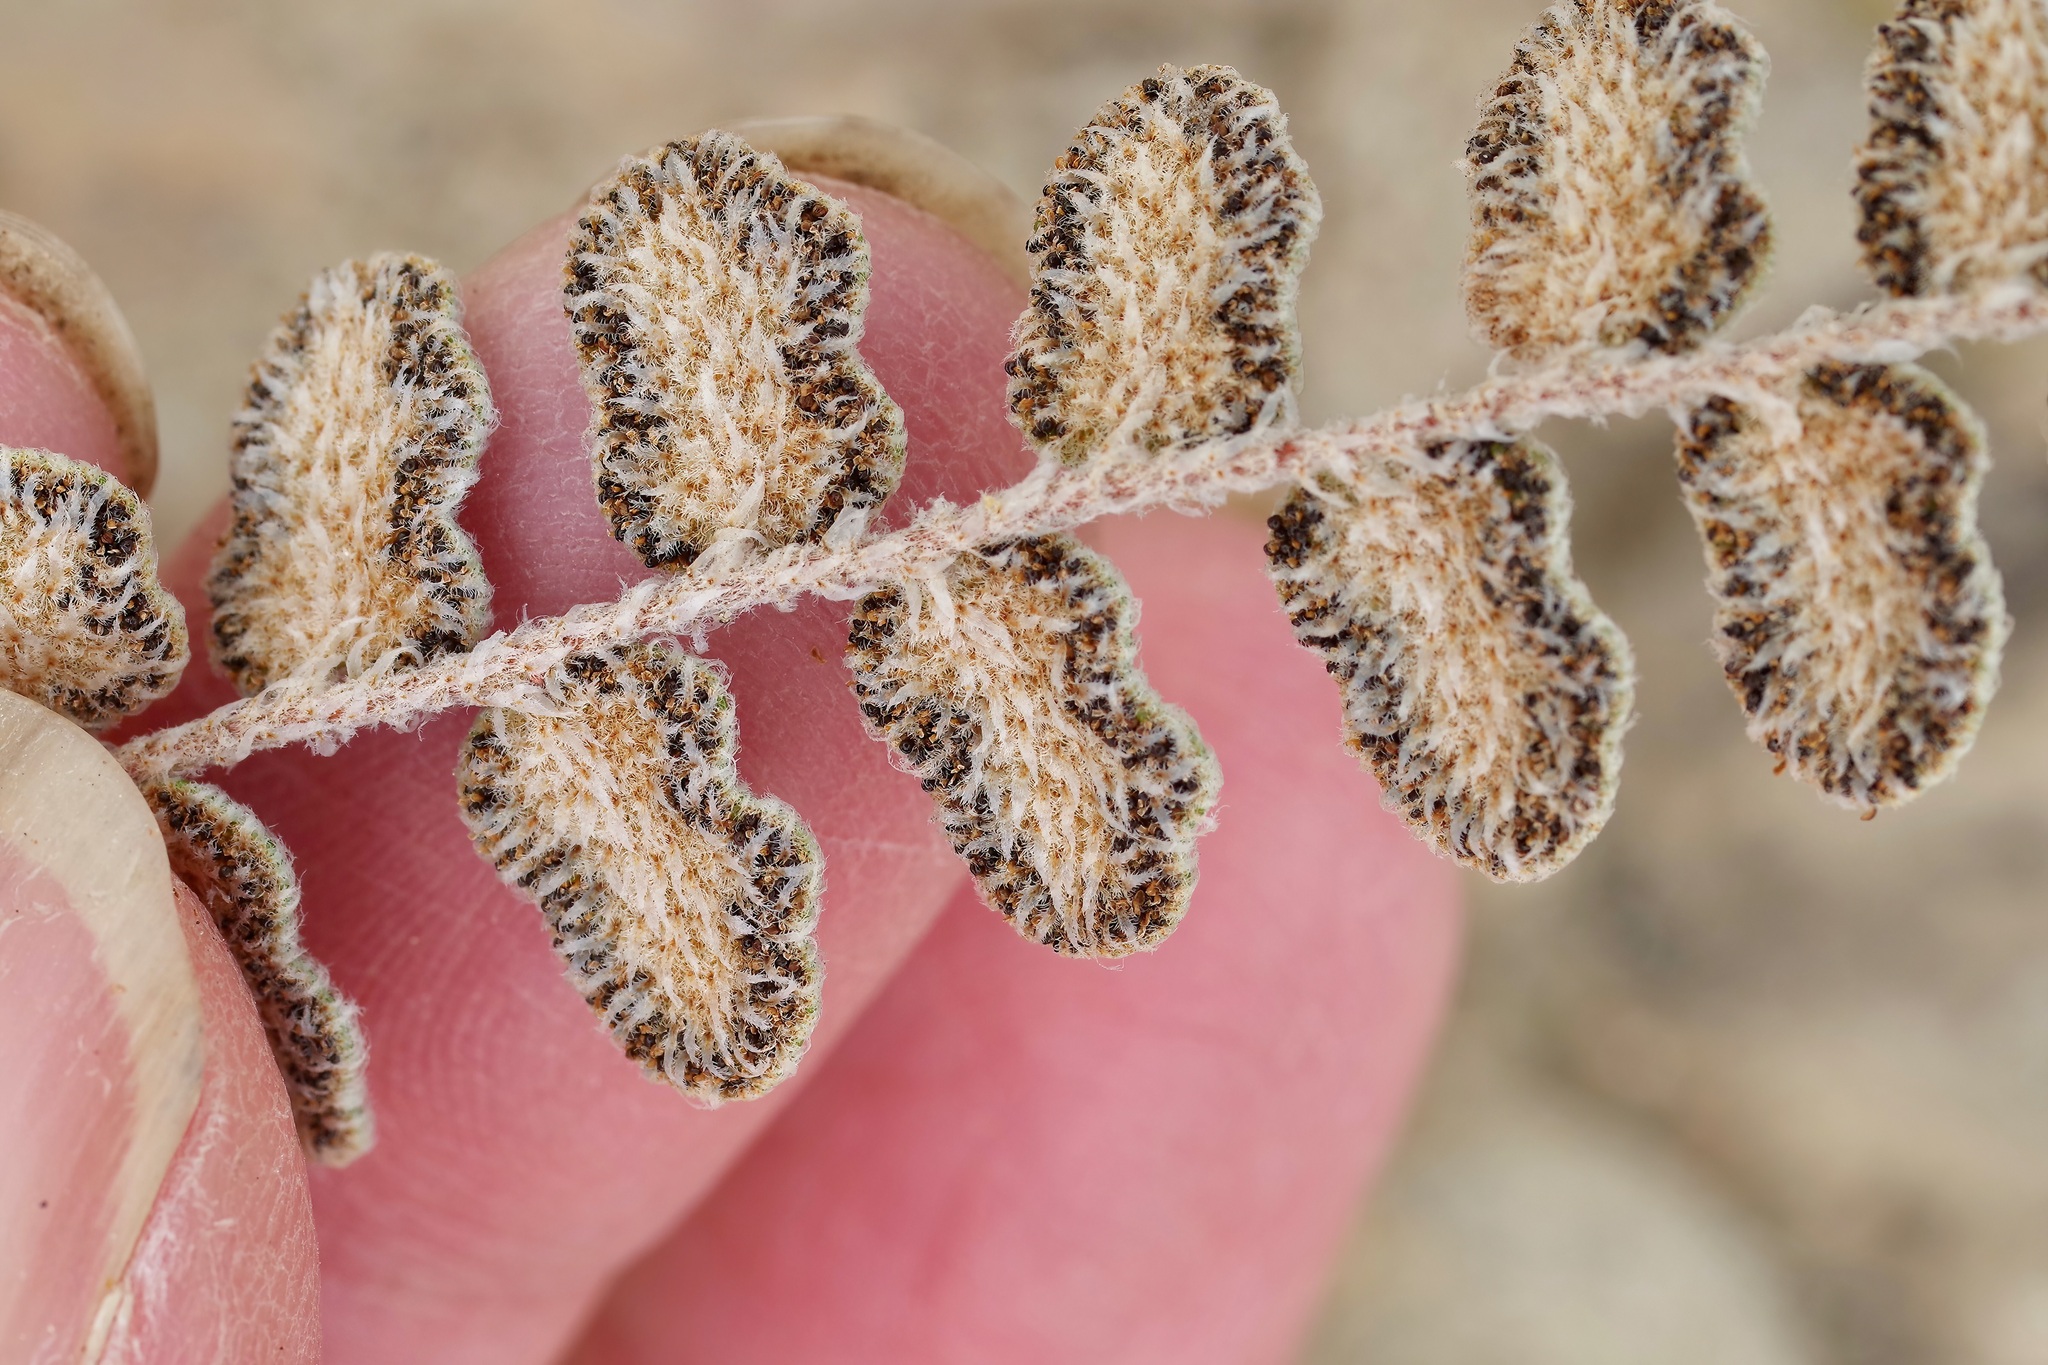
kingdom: Plantae
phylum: Tracheophyta
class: Polypodiopsida
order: Polypodiales
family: Pteridaceae
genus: Astrolepis
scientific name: Astrolepis integerrima
